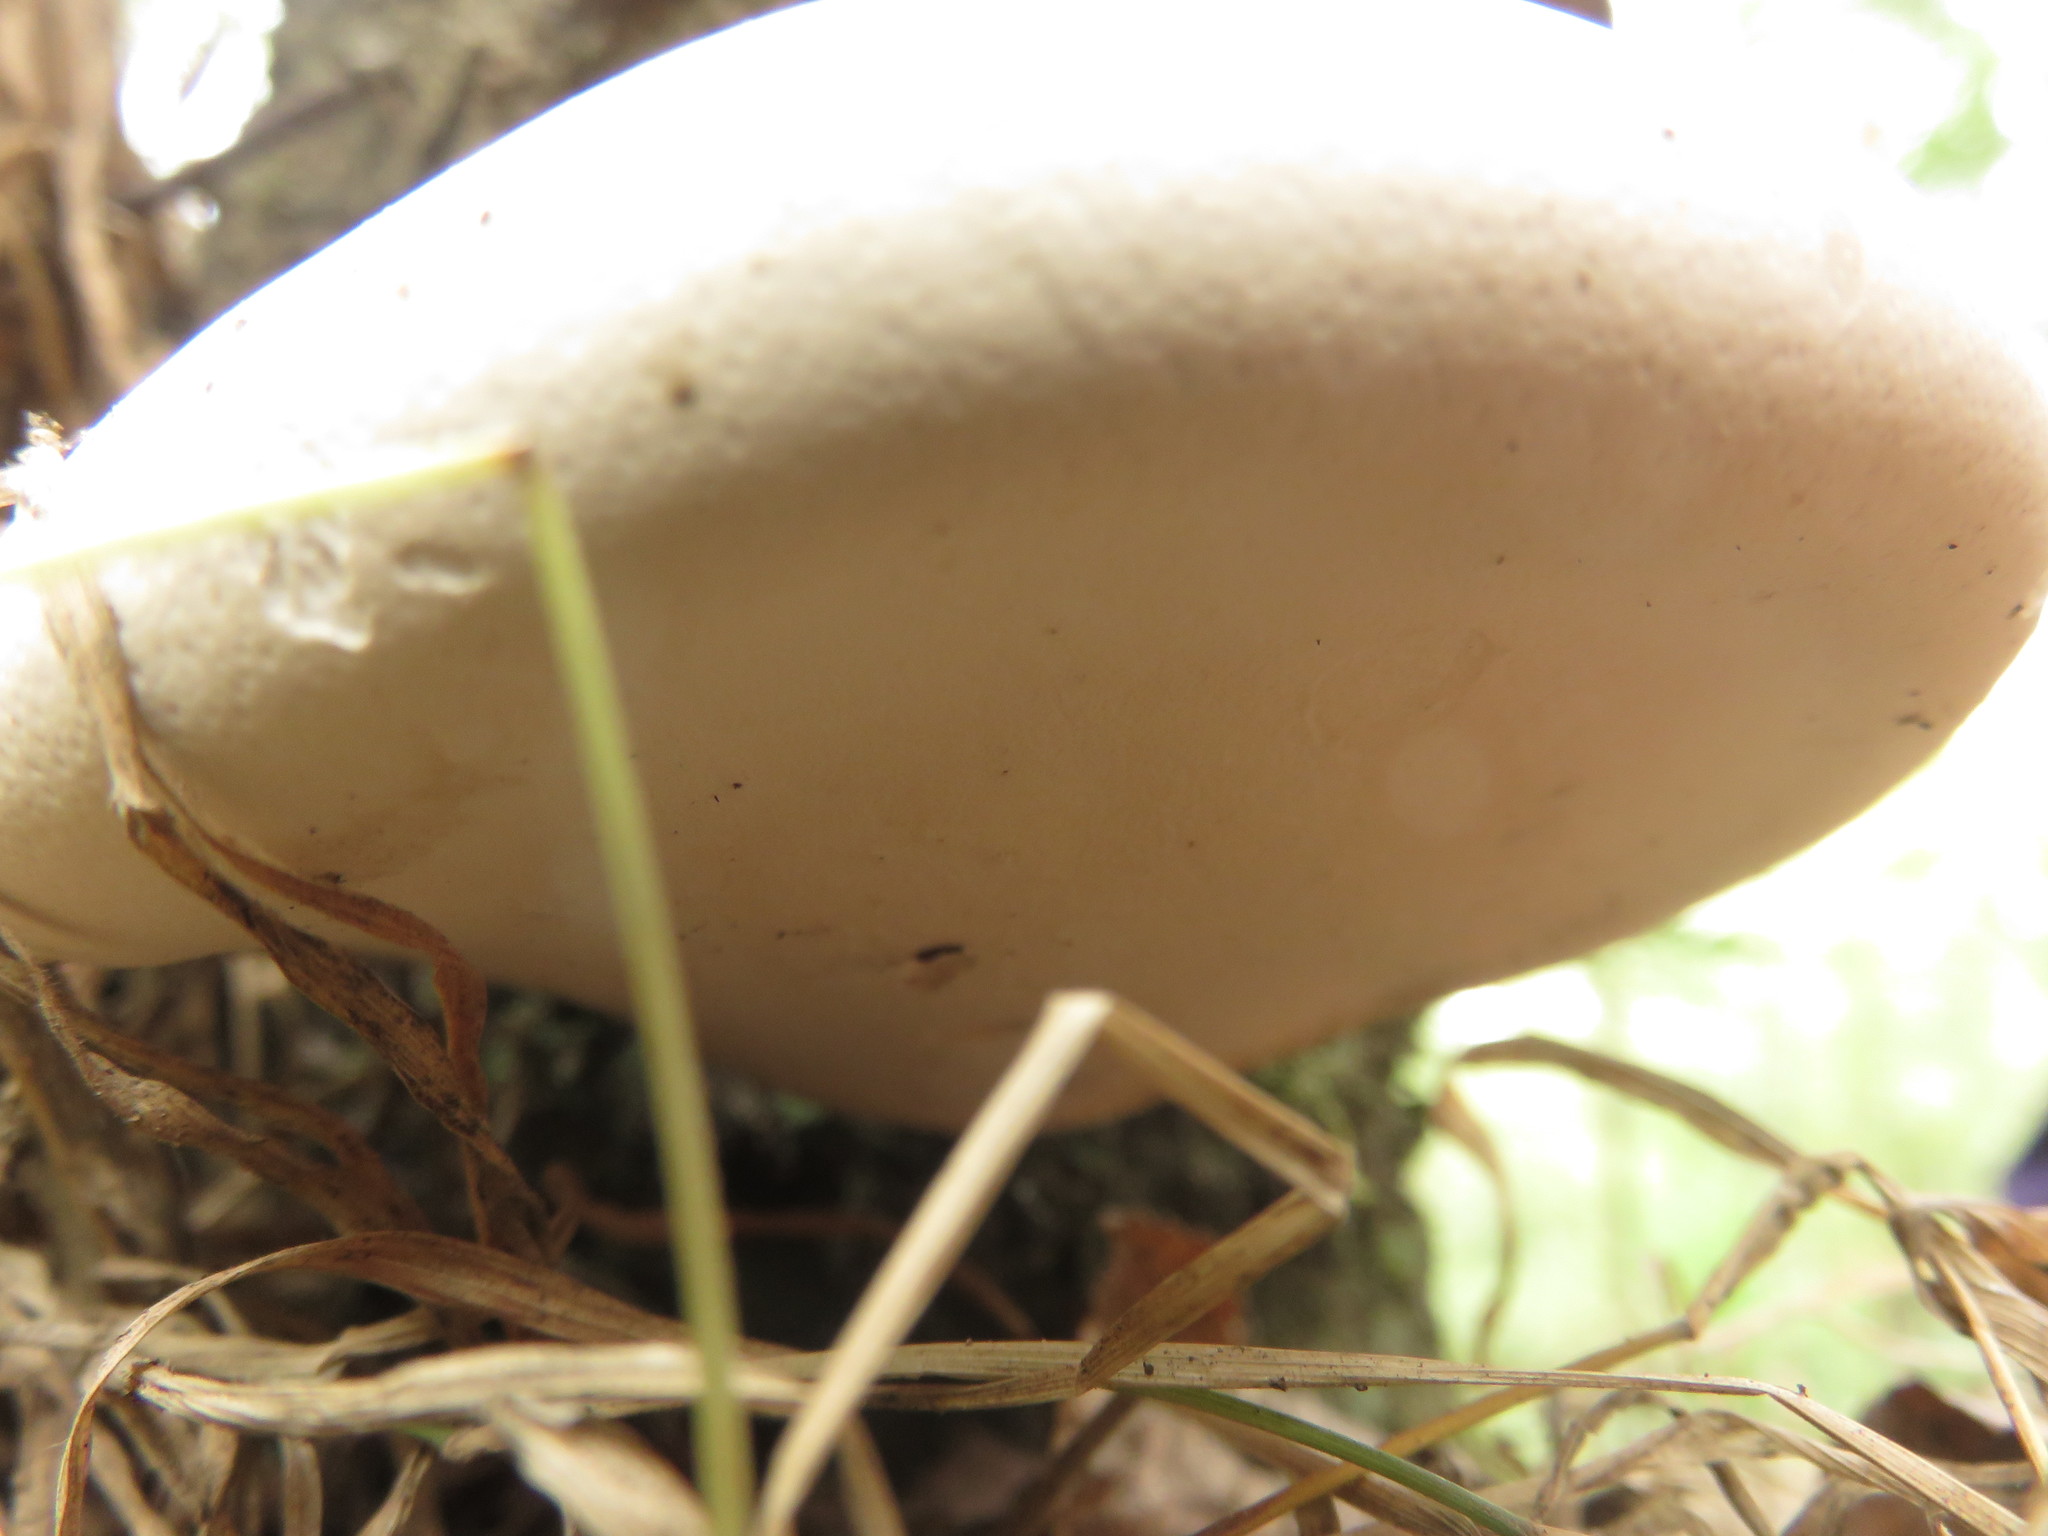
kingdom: Fungi
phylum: Basidiomycota
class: Agaricomycetes
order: Polyporales
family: Fomitopsidaceae
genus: Fomitopsis
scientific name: Fomitopsis betulina
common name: Birch polypore
